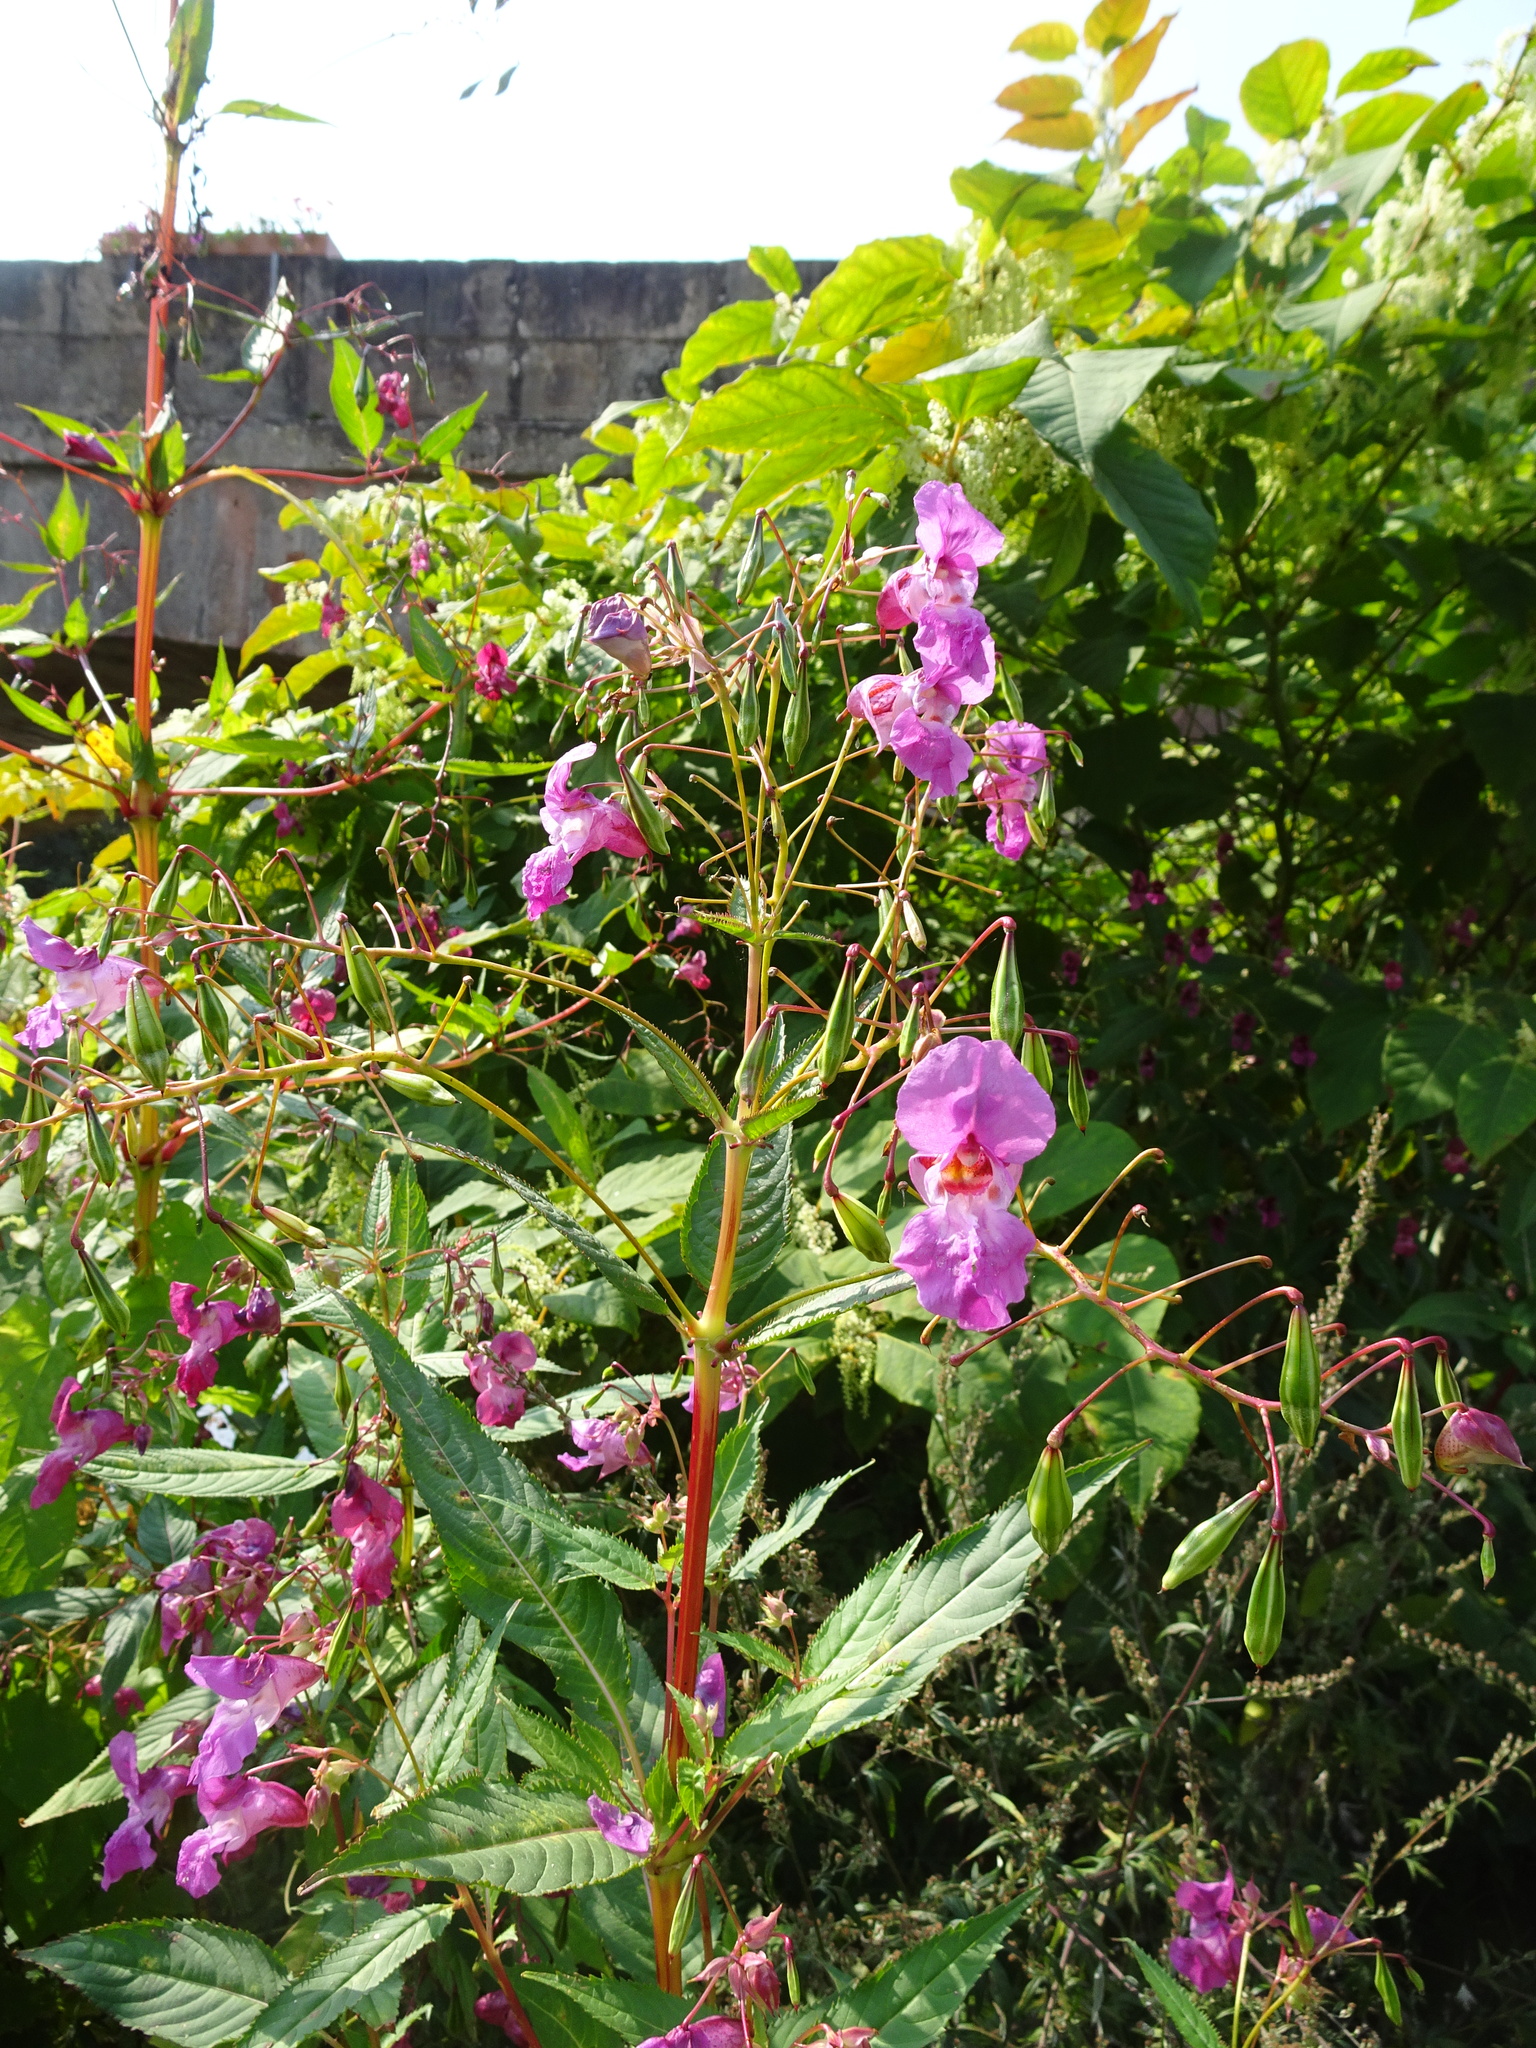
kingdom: Plantae
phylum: Tracheophyta
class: Magnoliopsida
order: Ericales
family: Balsaminaceae
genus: Impatiens
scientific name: Impatiens glandulifera
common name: Himalayan balsam
